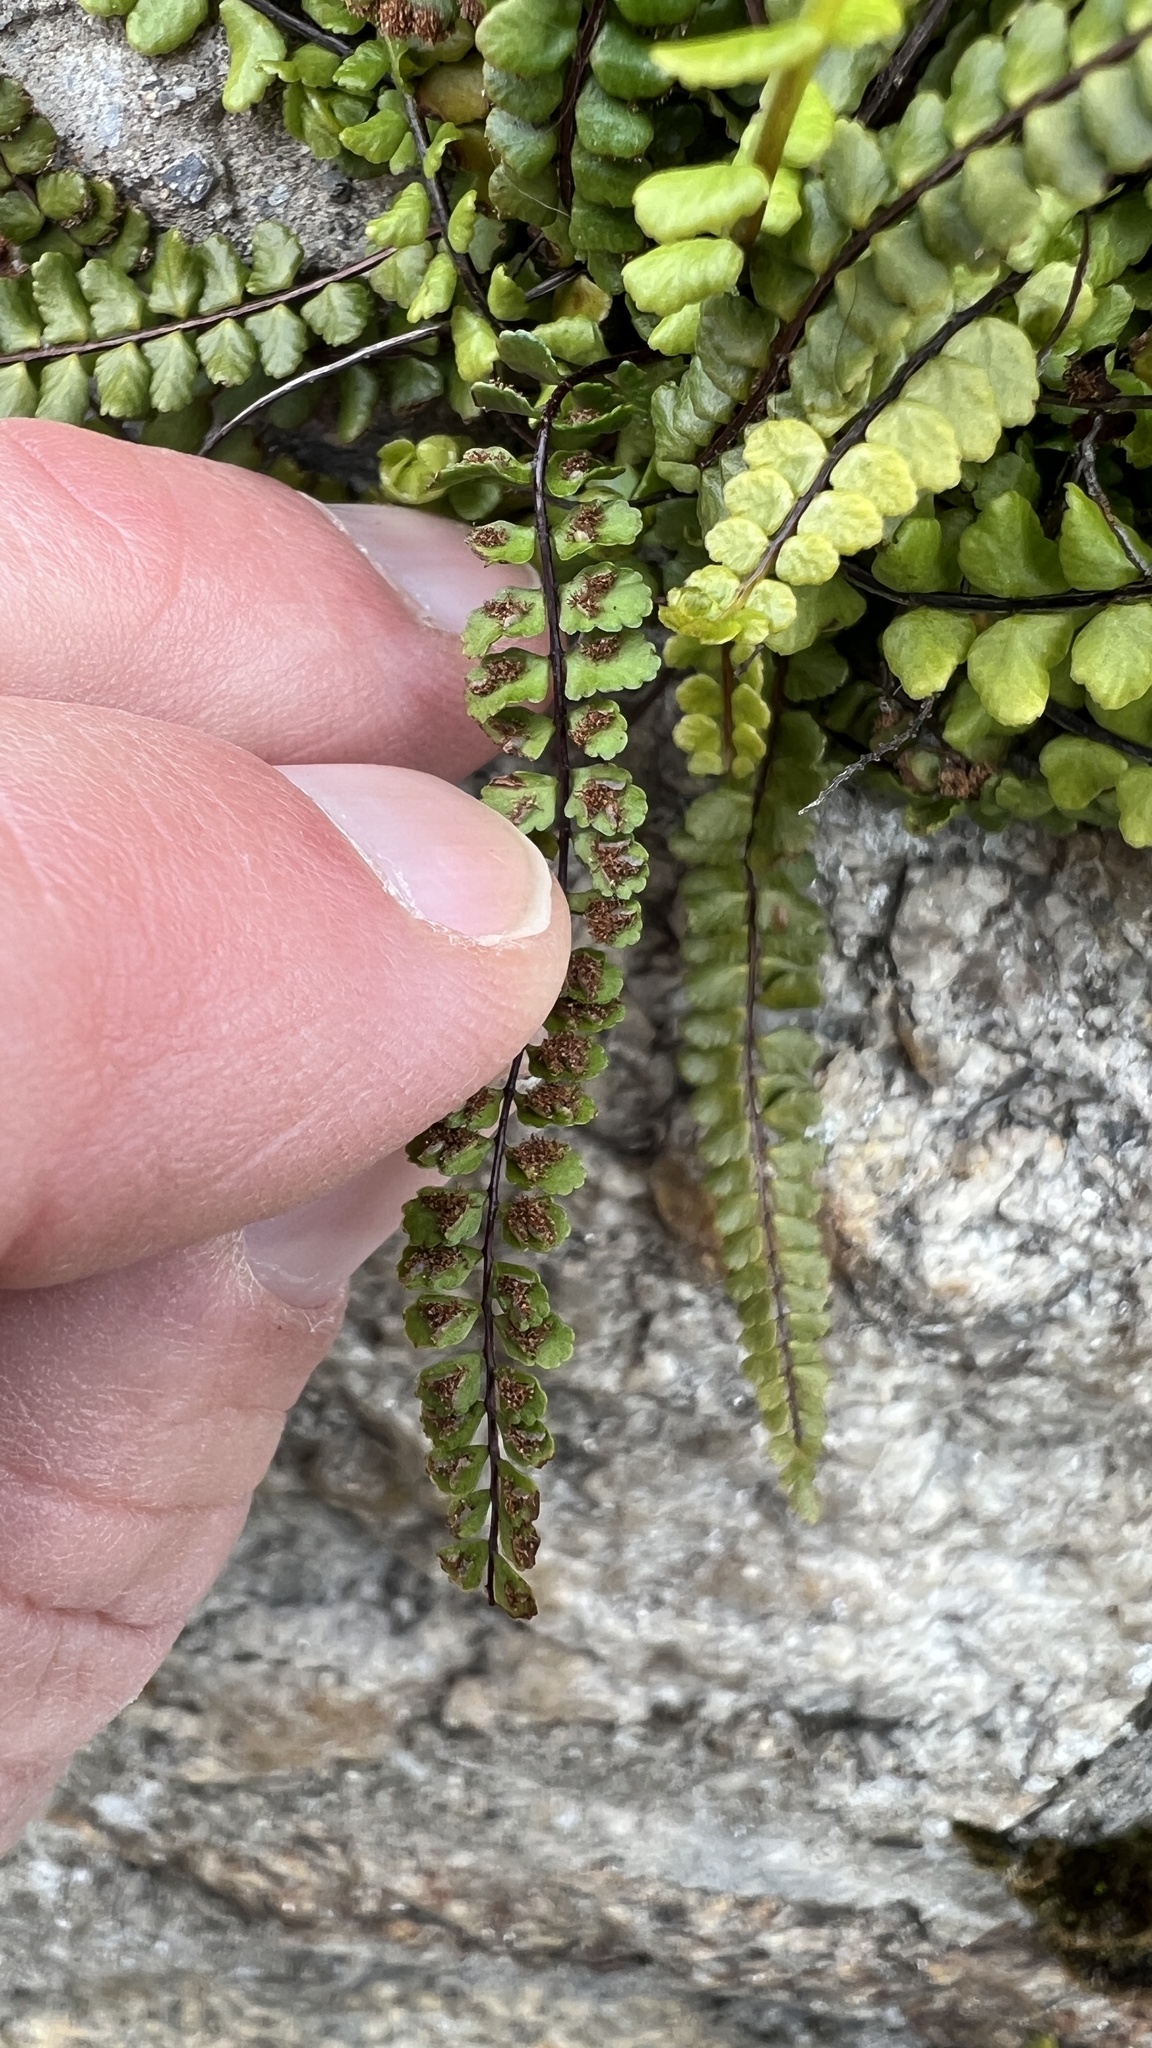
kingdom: Plantae
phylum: Tracheophyta
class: Polypodiopsida
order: Polypodiales
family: Aspleniaceae
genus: Asplenium
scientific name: Asplenium trichomanes
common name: Maidenhair spleenwort
